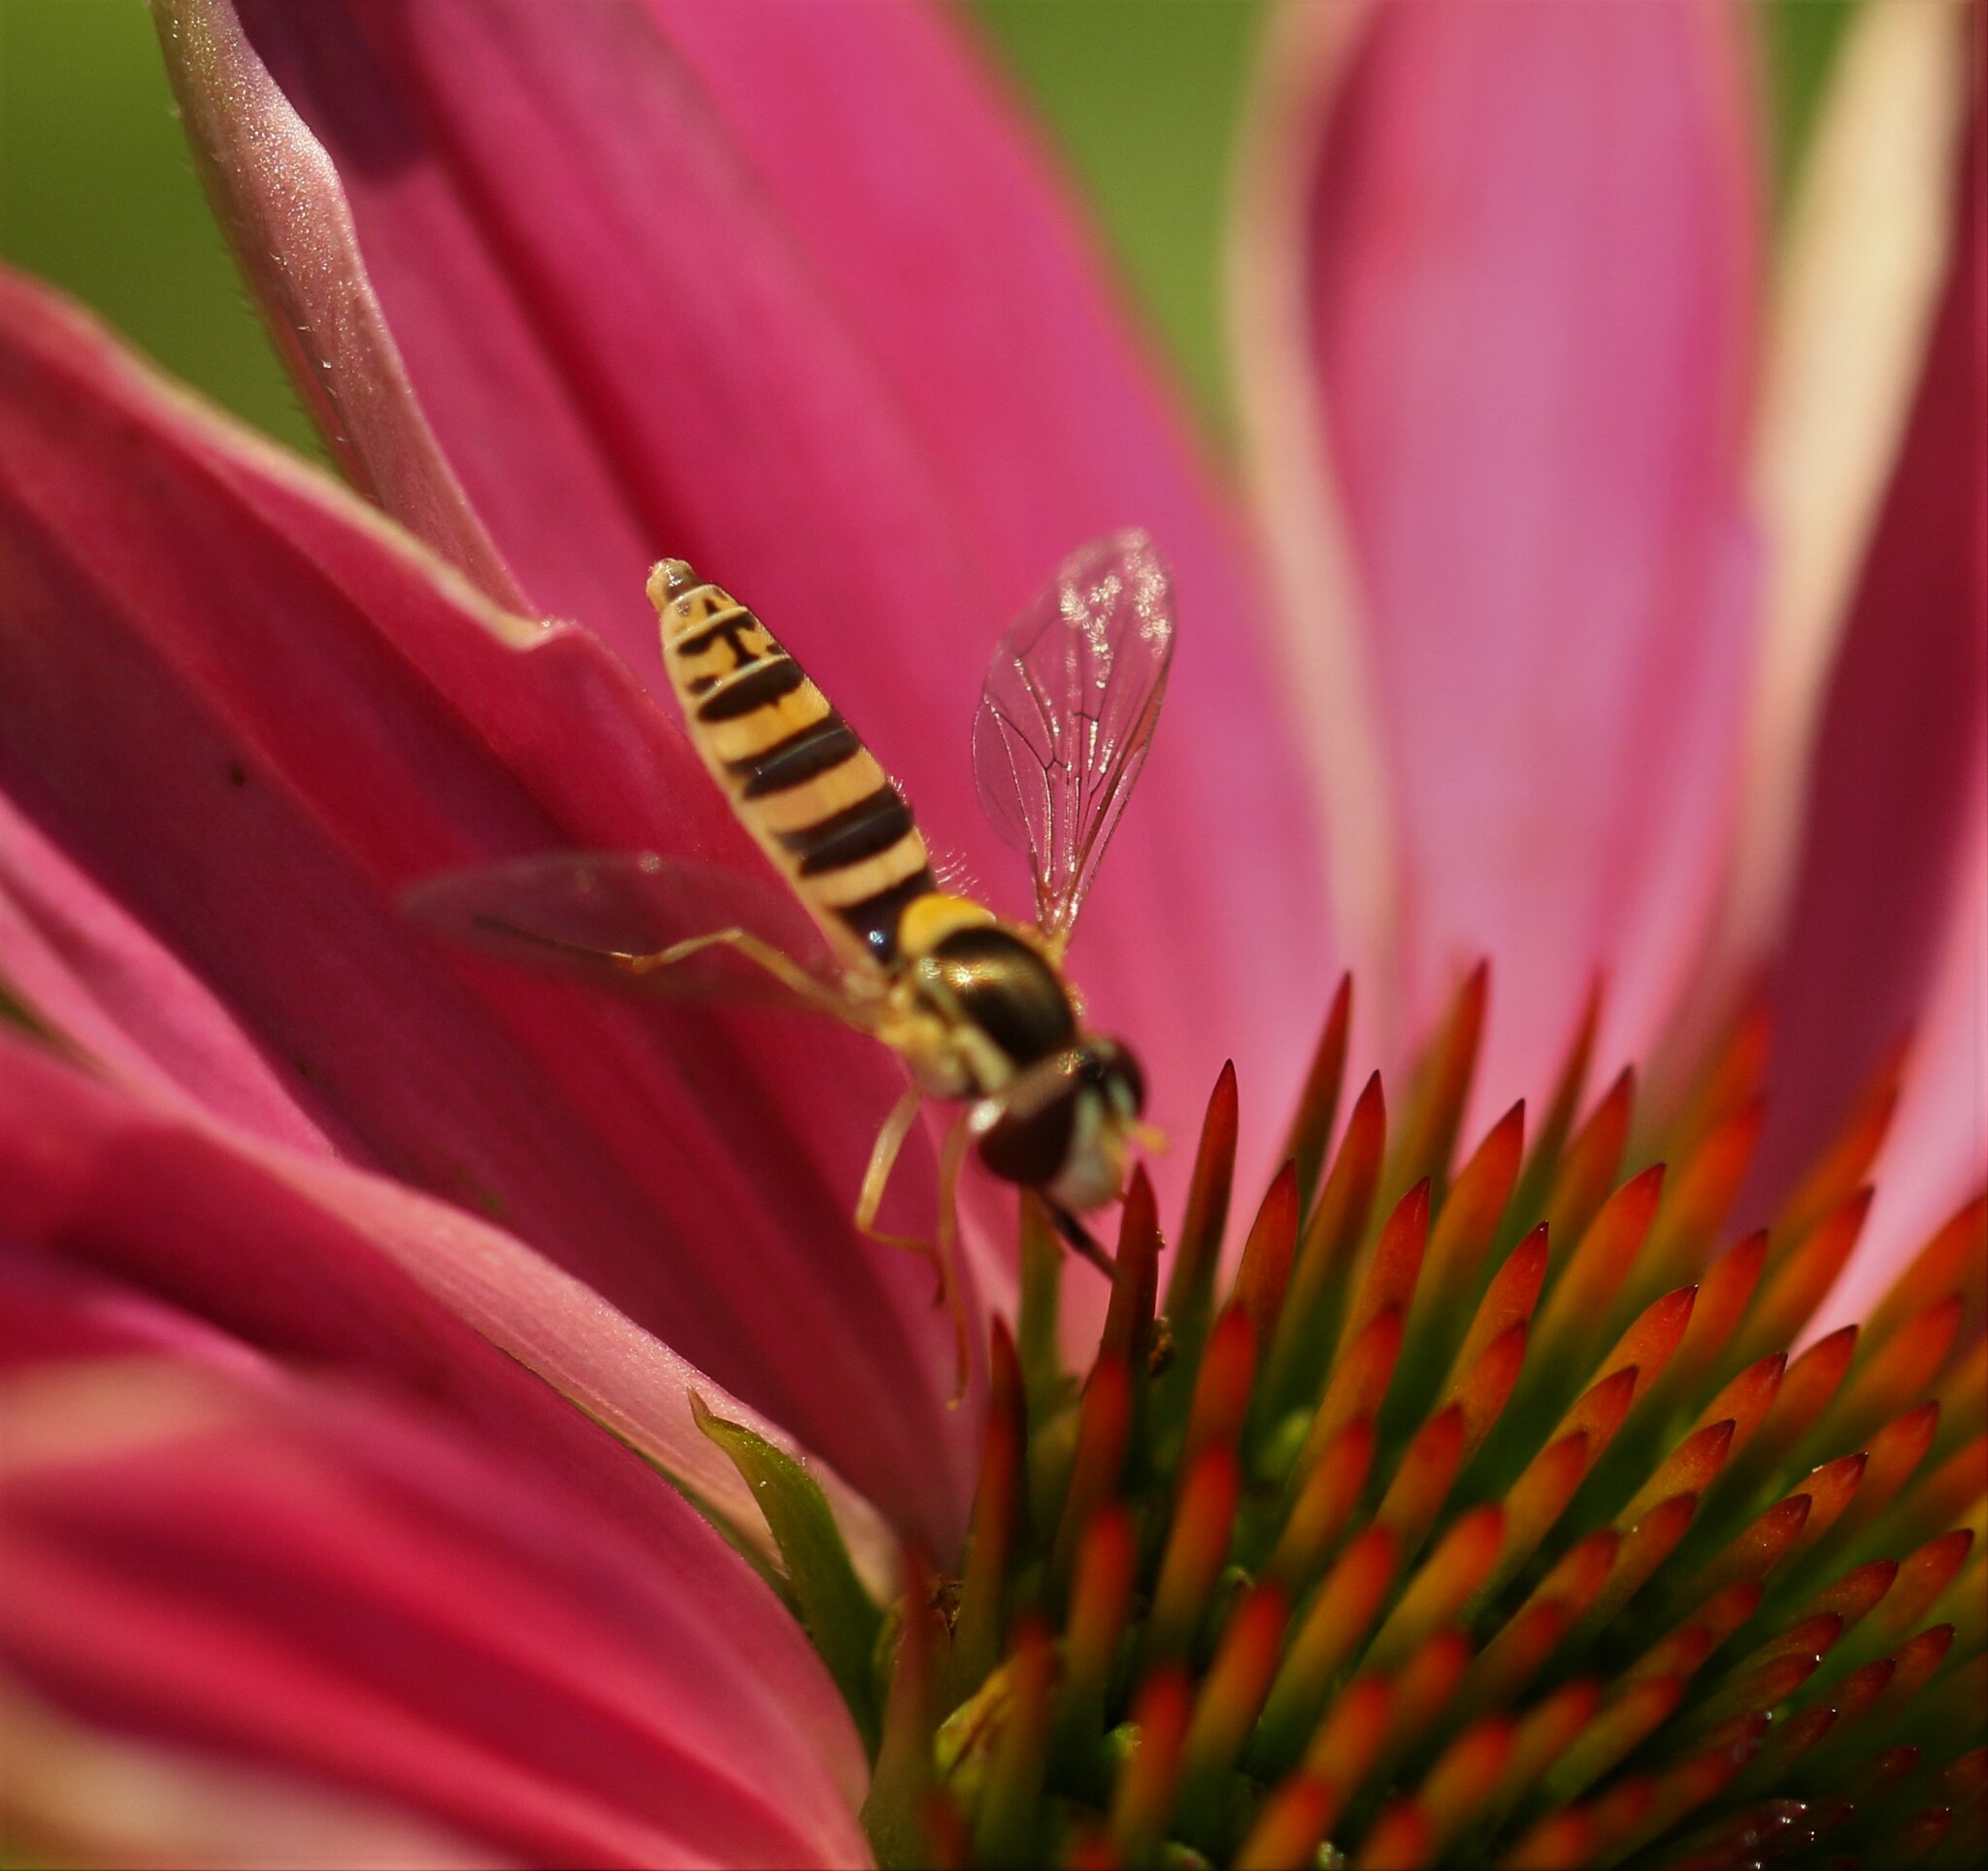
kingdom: Animalia
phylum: Arthropoda
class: Insecta
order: Diptera
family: Syrphidae
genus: Sphaerophoria
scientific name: Sphaerophoria
